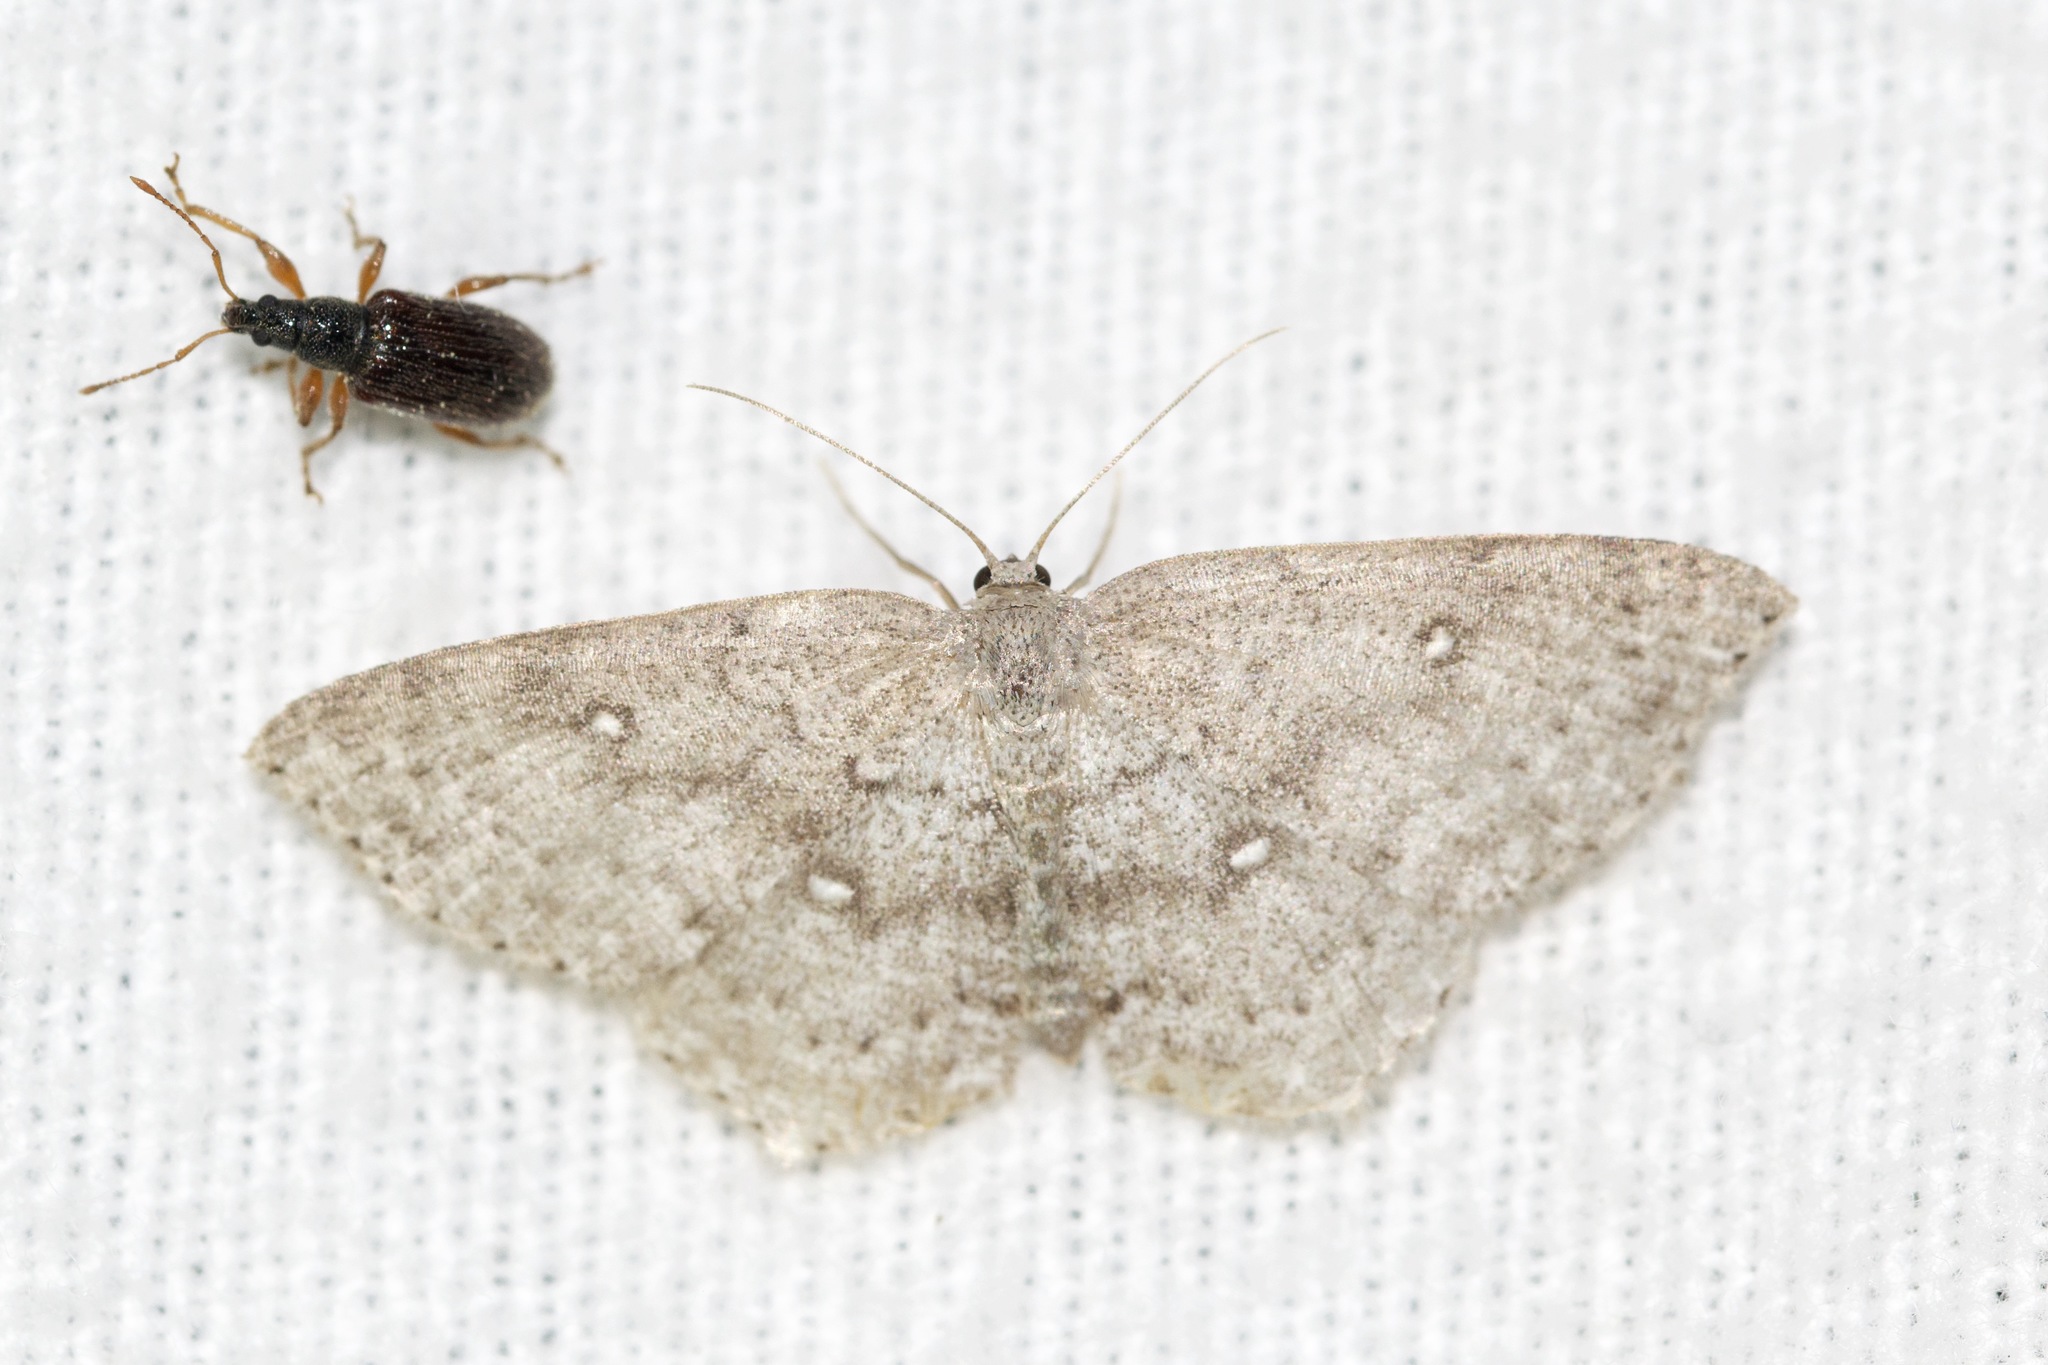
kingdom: Animalia
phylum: Arthropoda
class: Insecta
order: Lepidoptera
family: Geometridae
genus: Cyclophora
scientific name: Cyclophora pendulinaria
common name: Sweet fern geometer
